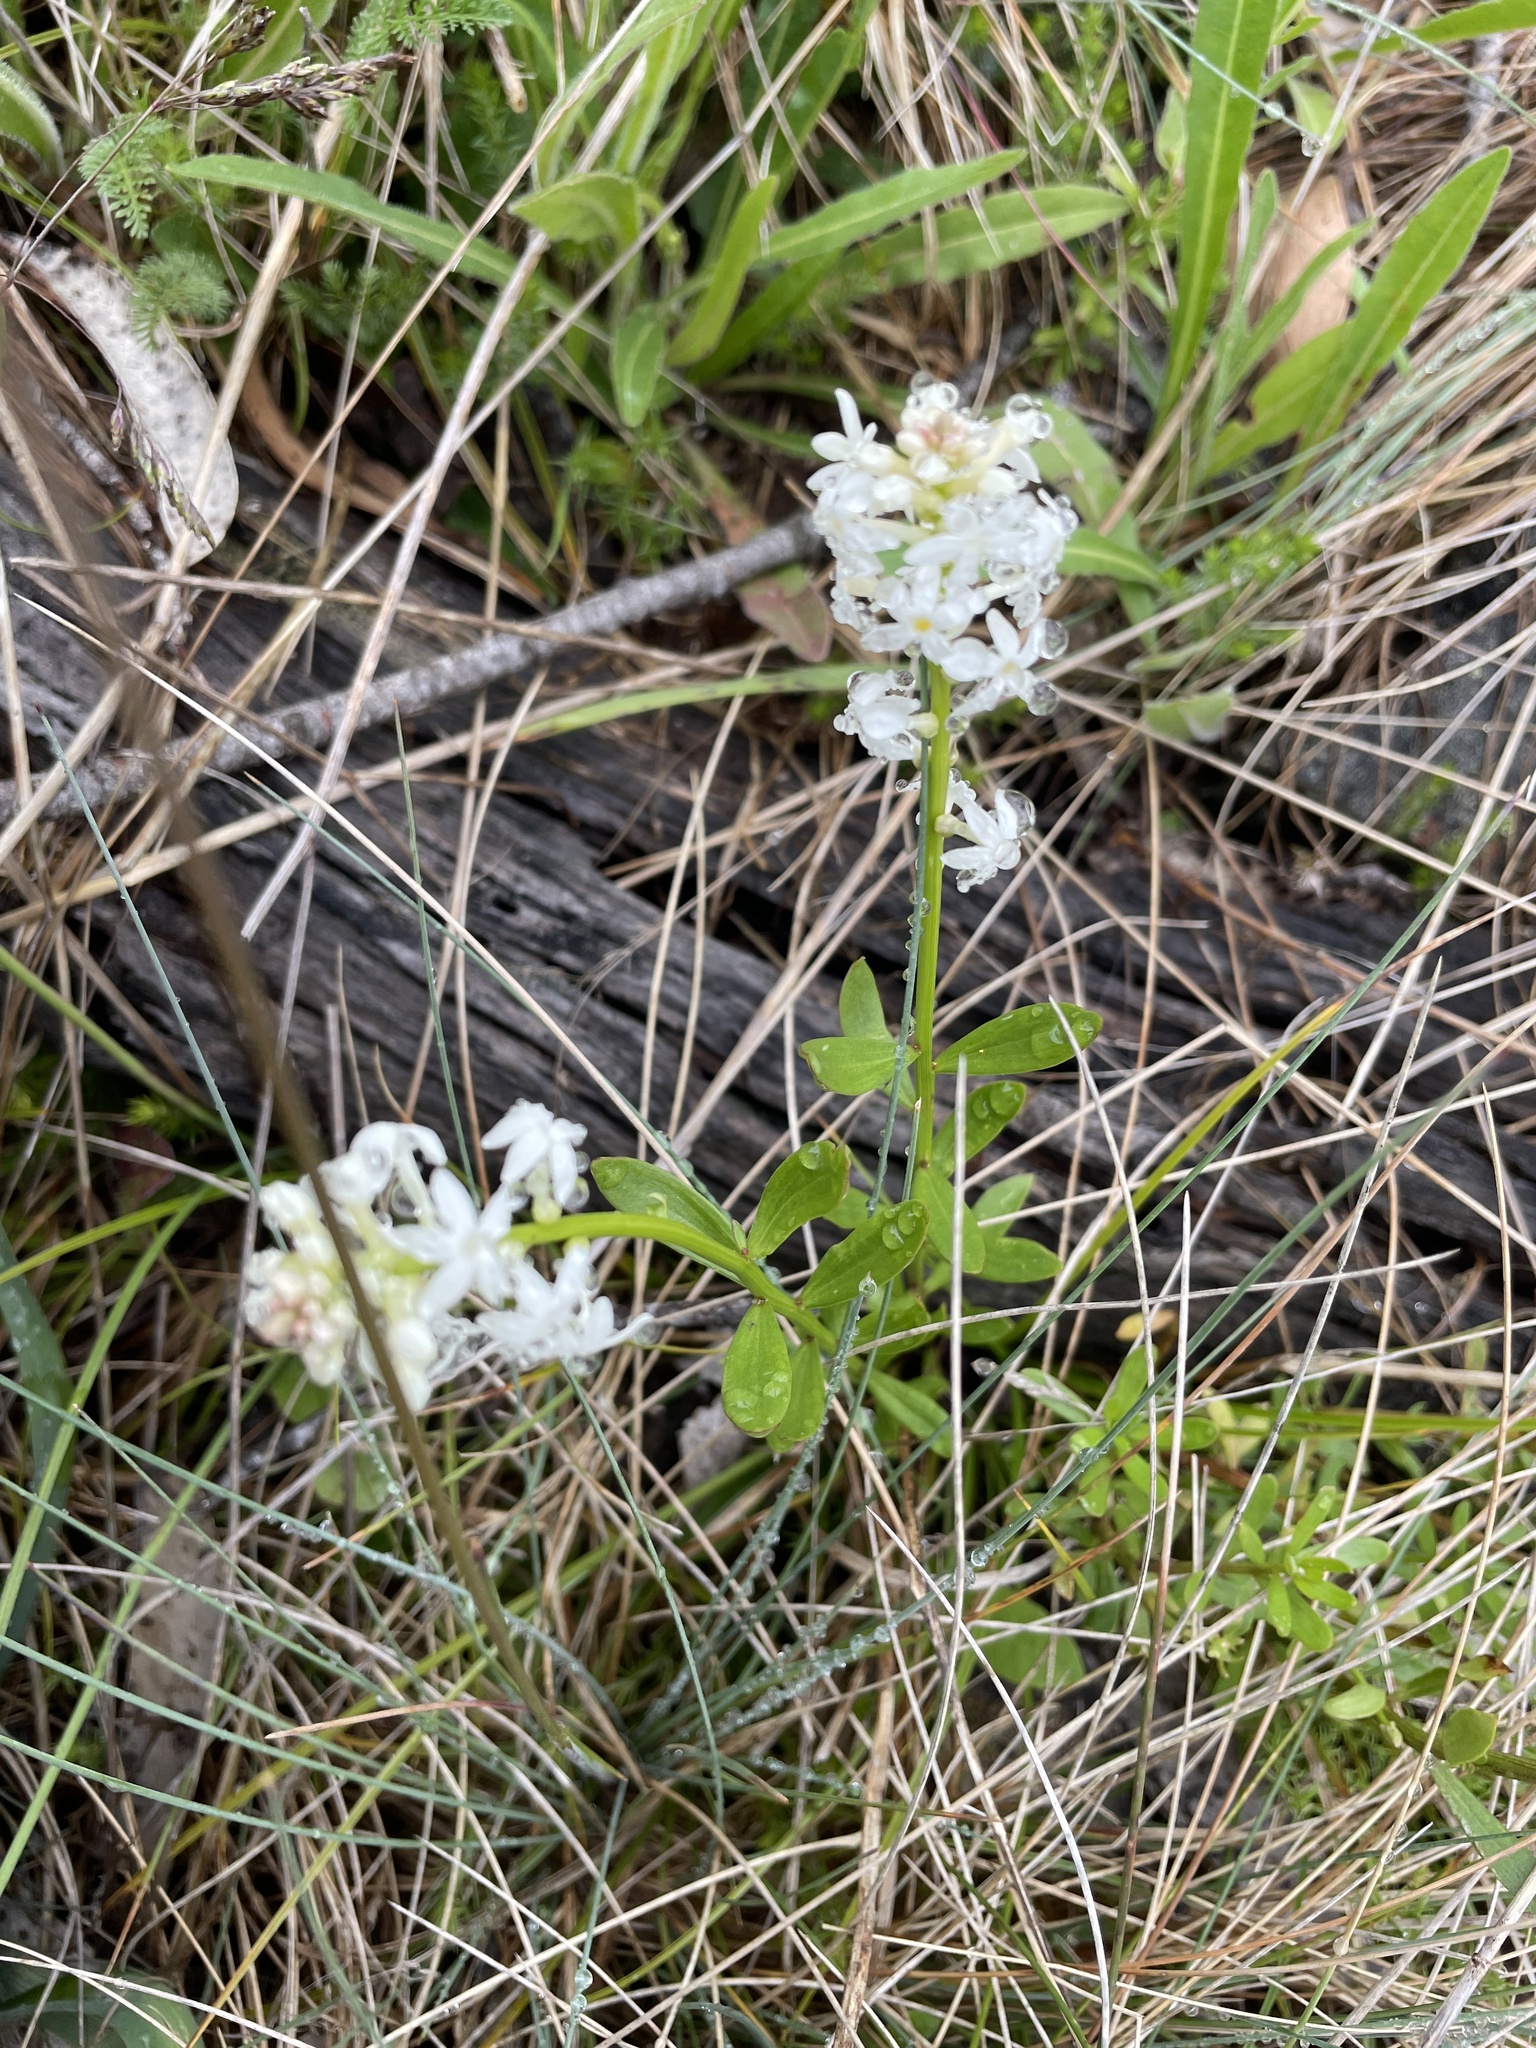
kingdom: Plantae
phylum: Tracheophyta
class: Magnoliopsida
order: Celastrales
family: Celastraceae
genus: Stackhousia
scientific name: Stackhousia monogyna
